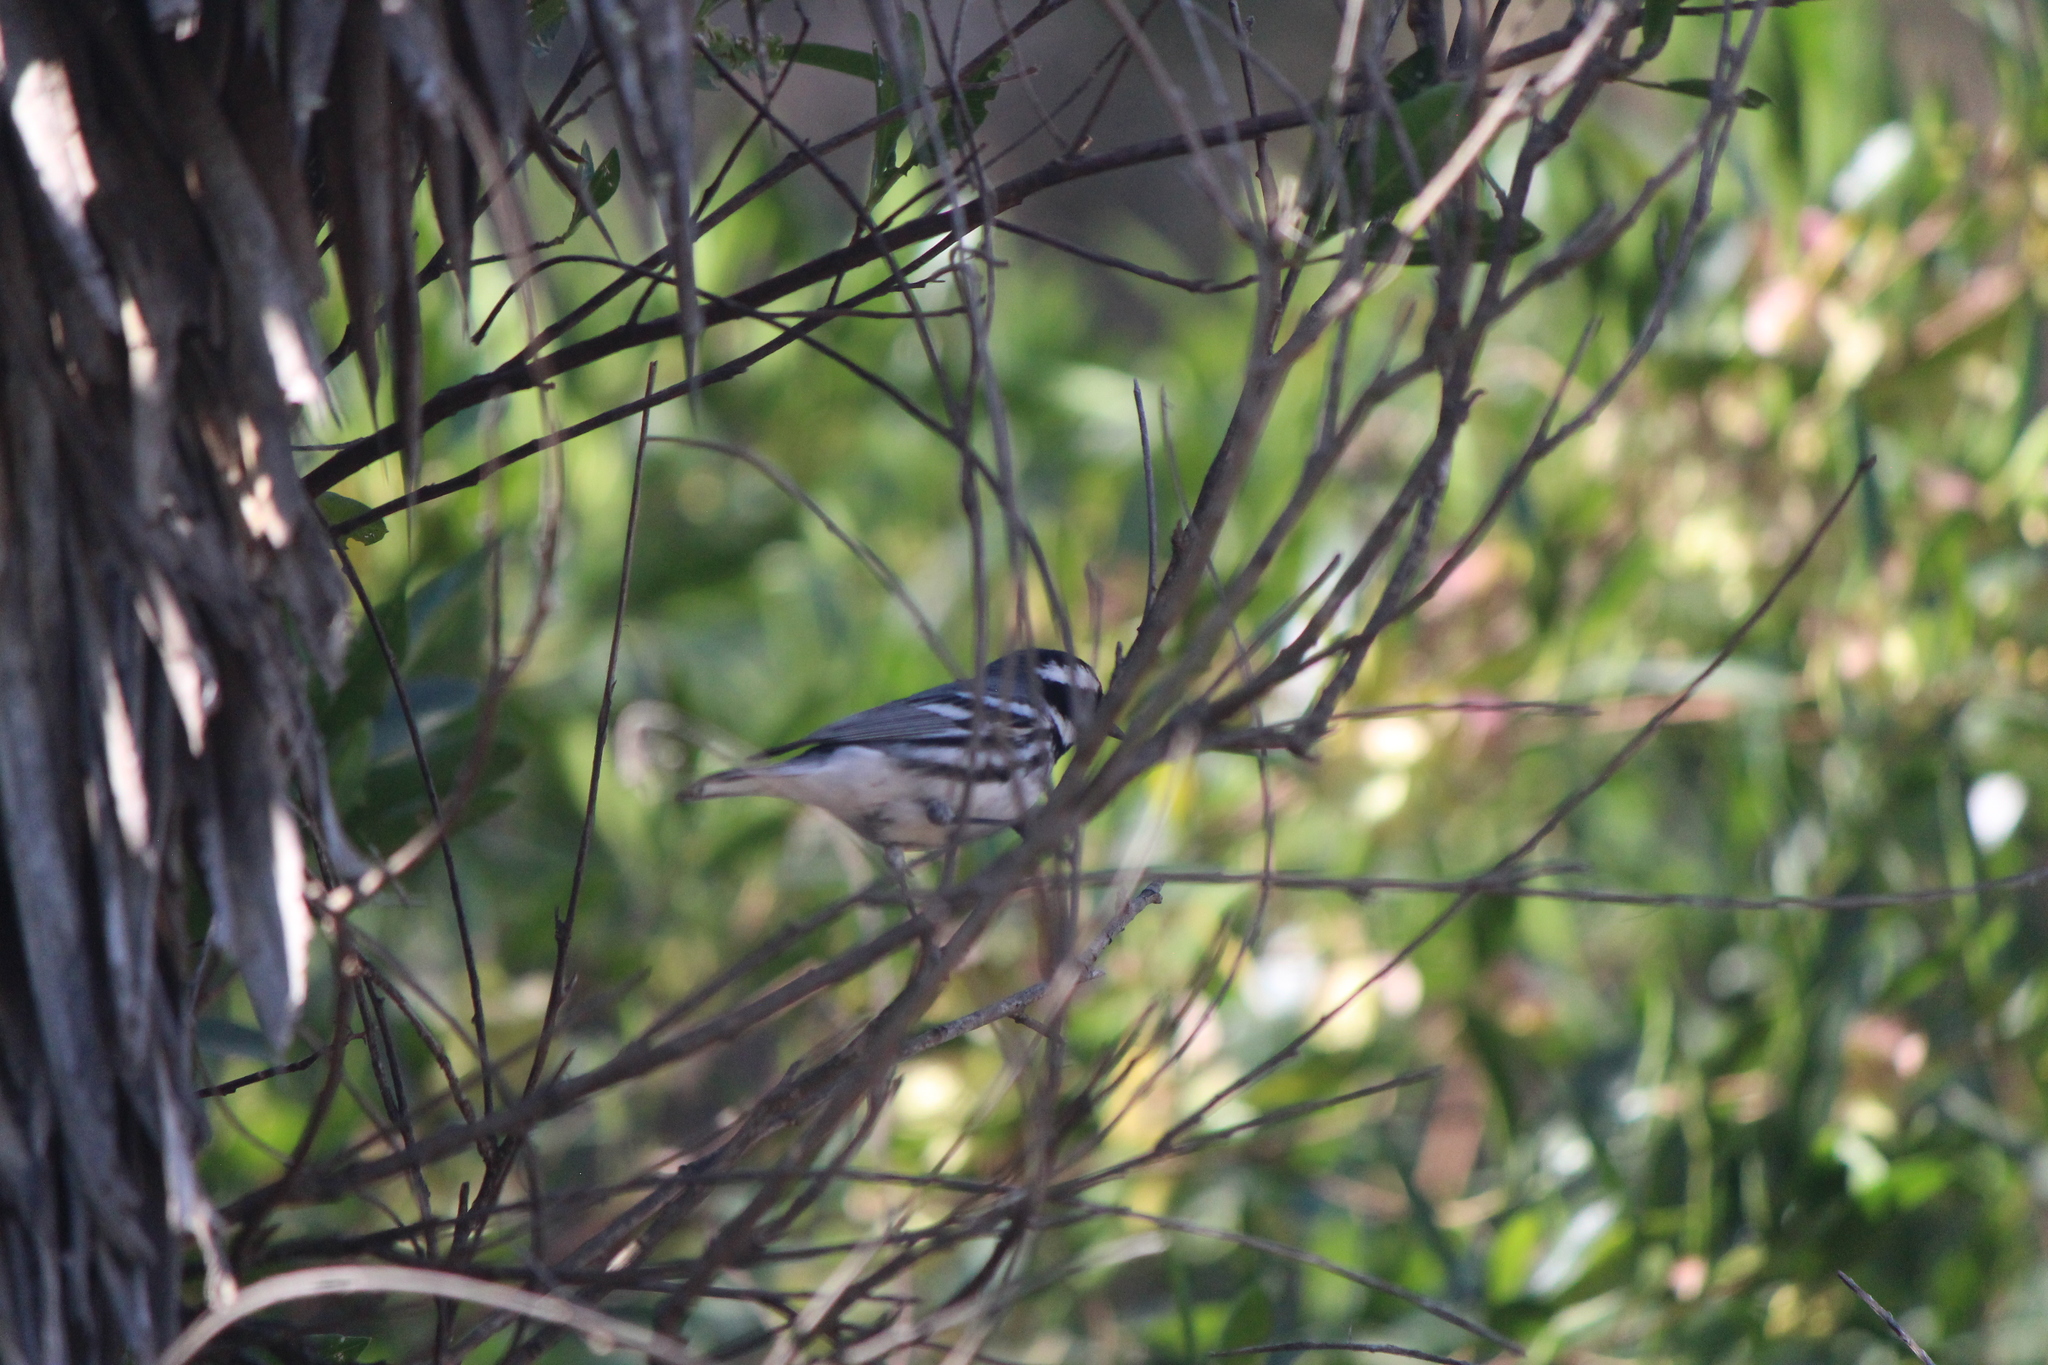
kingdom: Animalia
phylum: Chordata
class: Aves
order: Passeriformes
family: Parulidae
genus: Setophaga
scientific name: Setophaga nigrescens
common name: Black-throated gray warbler
